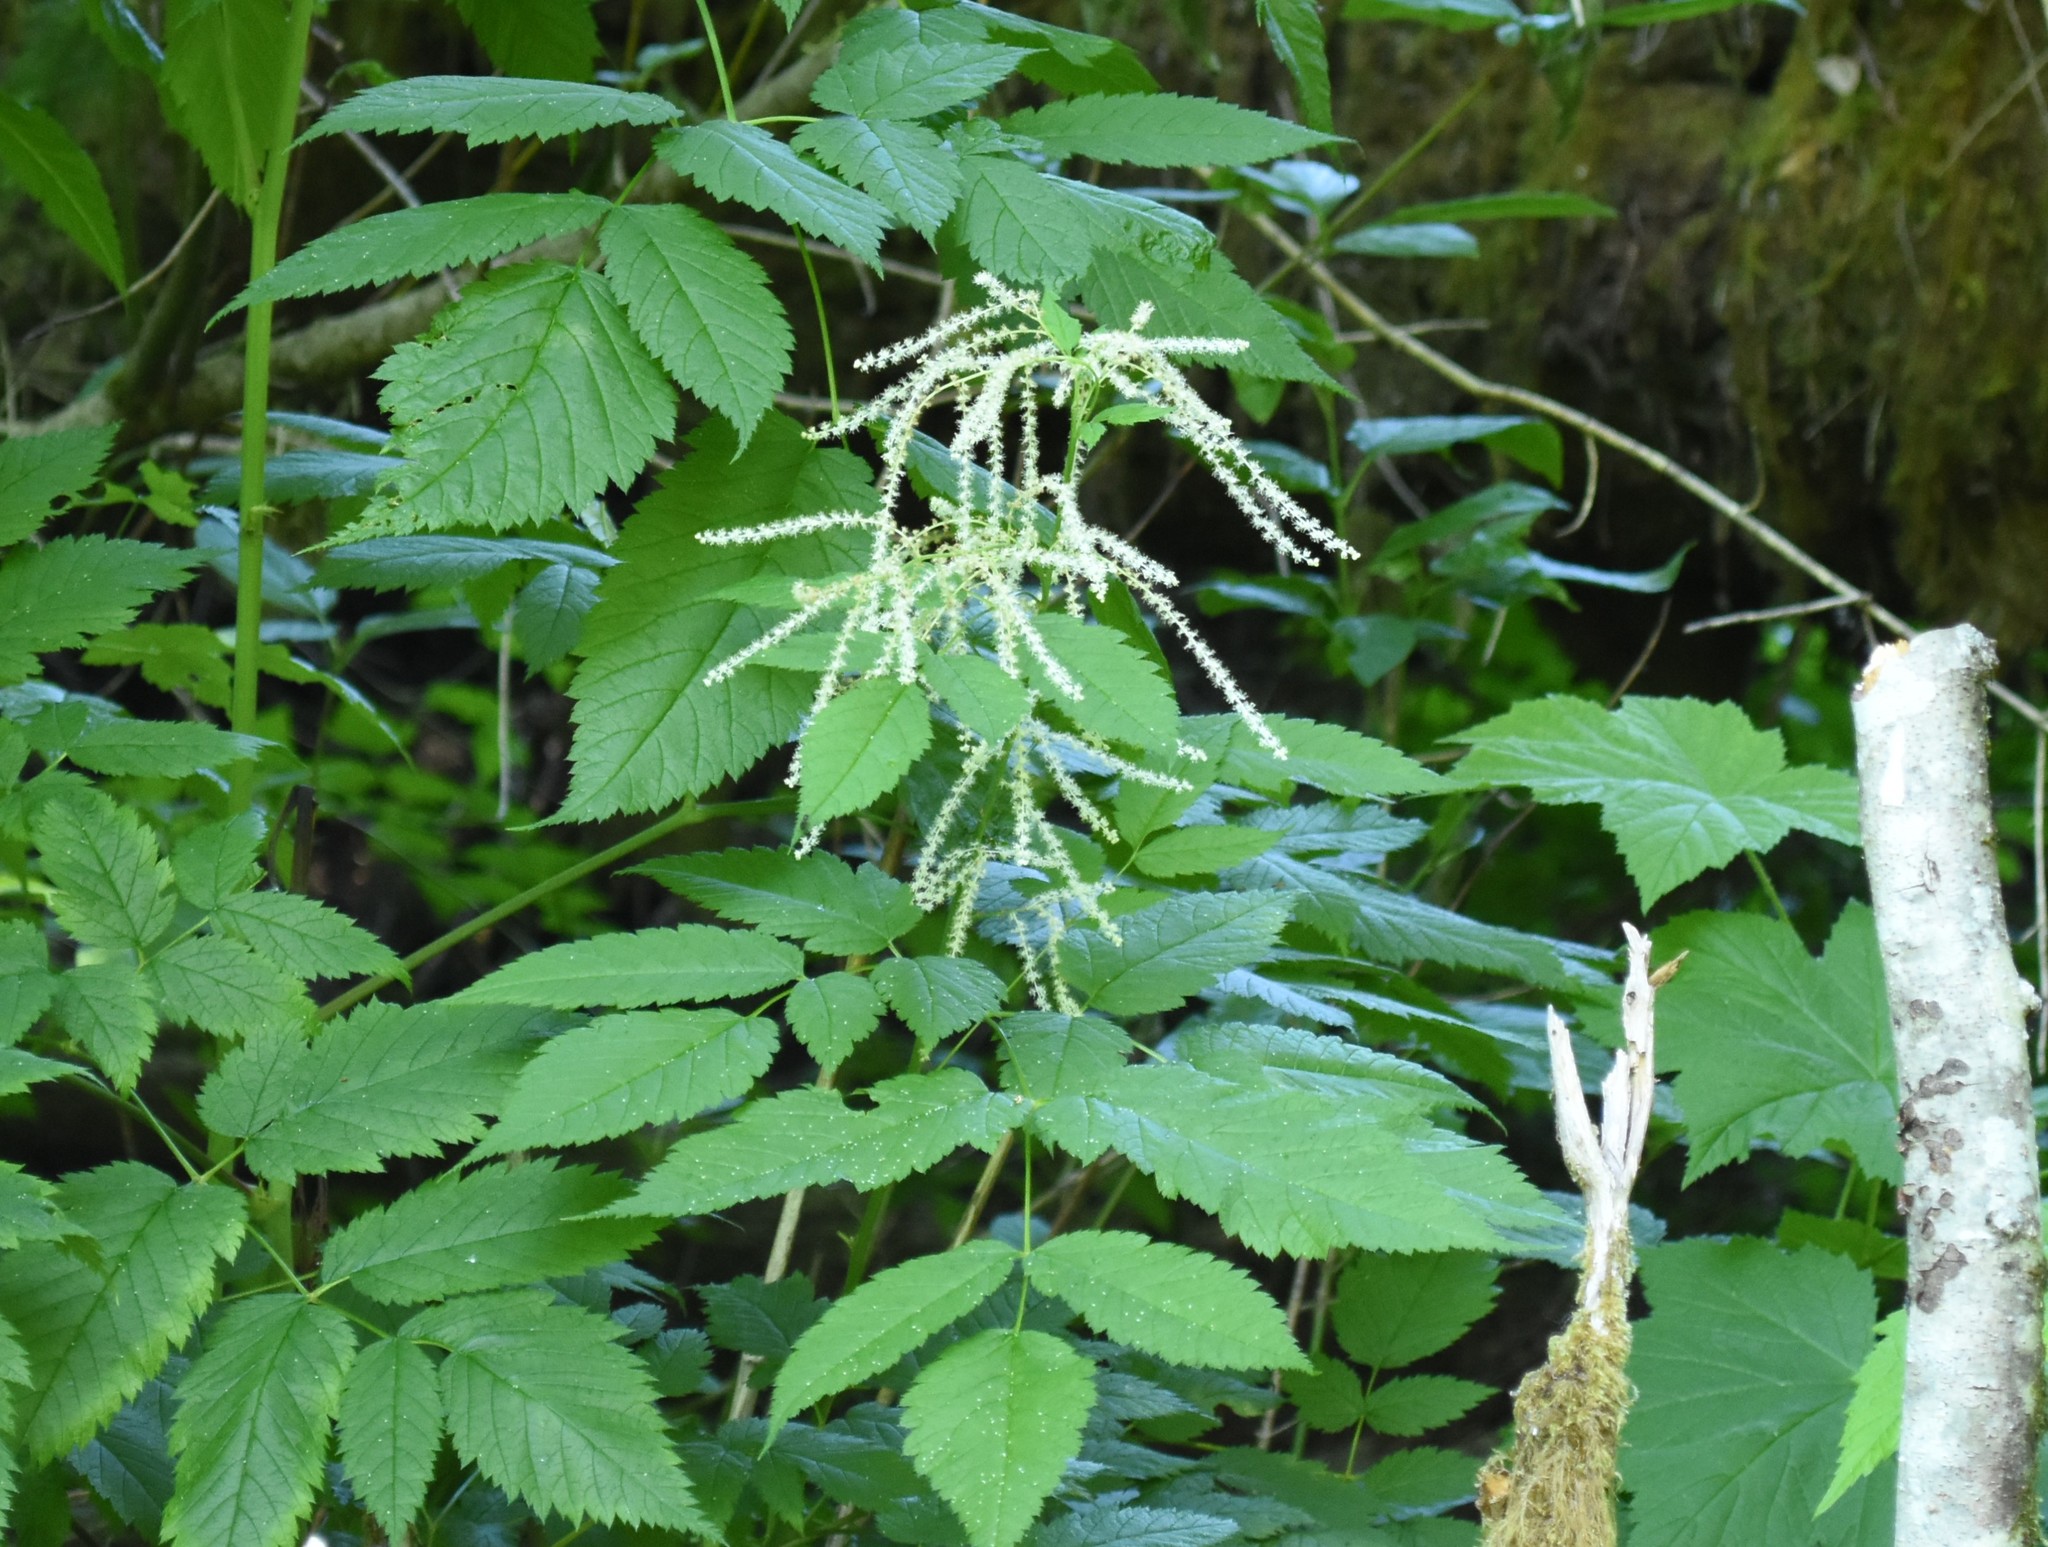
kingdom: Plantae
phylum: Tracheophyta
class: Magnoliopsida
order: Rosales
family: Rosaceae
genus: Aruncus
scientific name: Aruncus dioicus
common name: Buck's-beard
